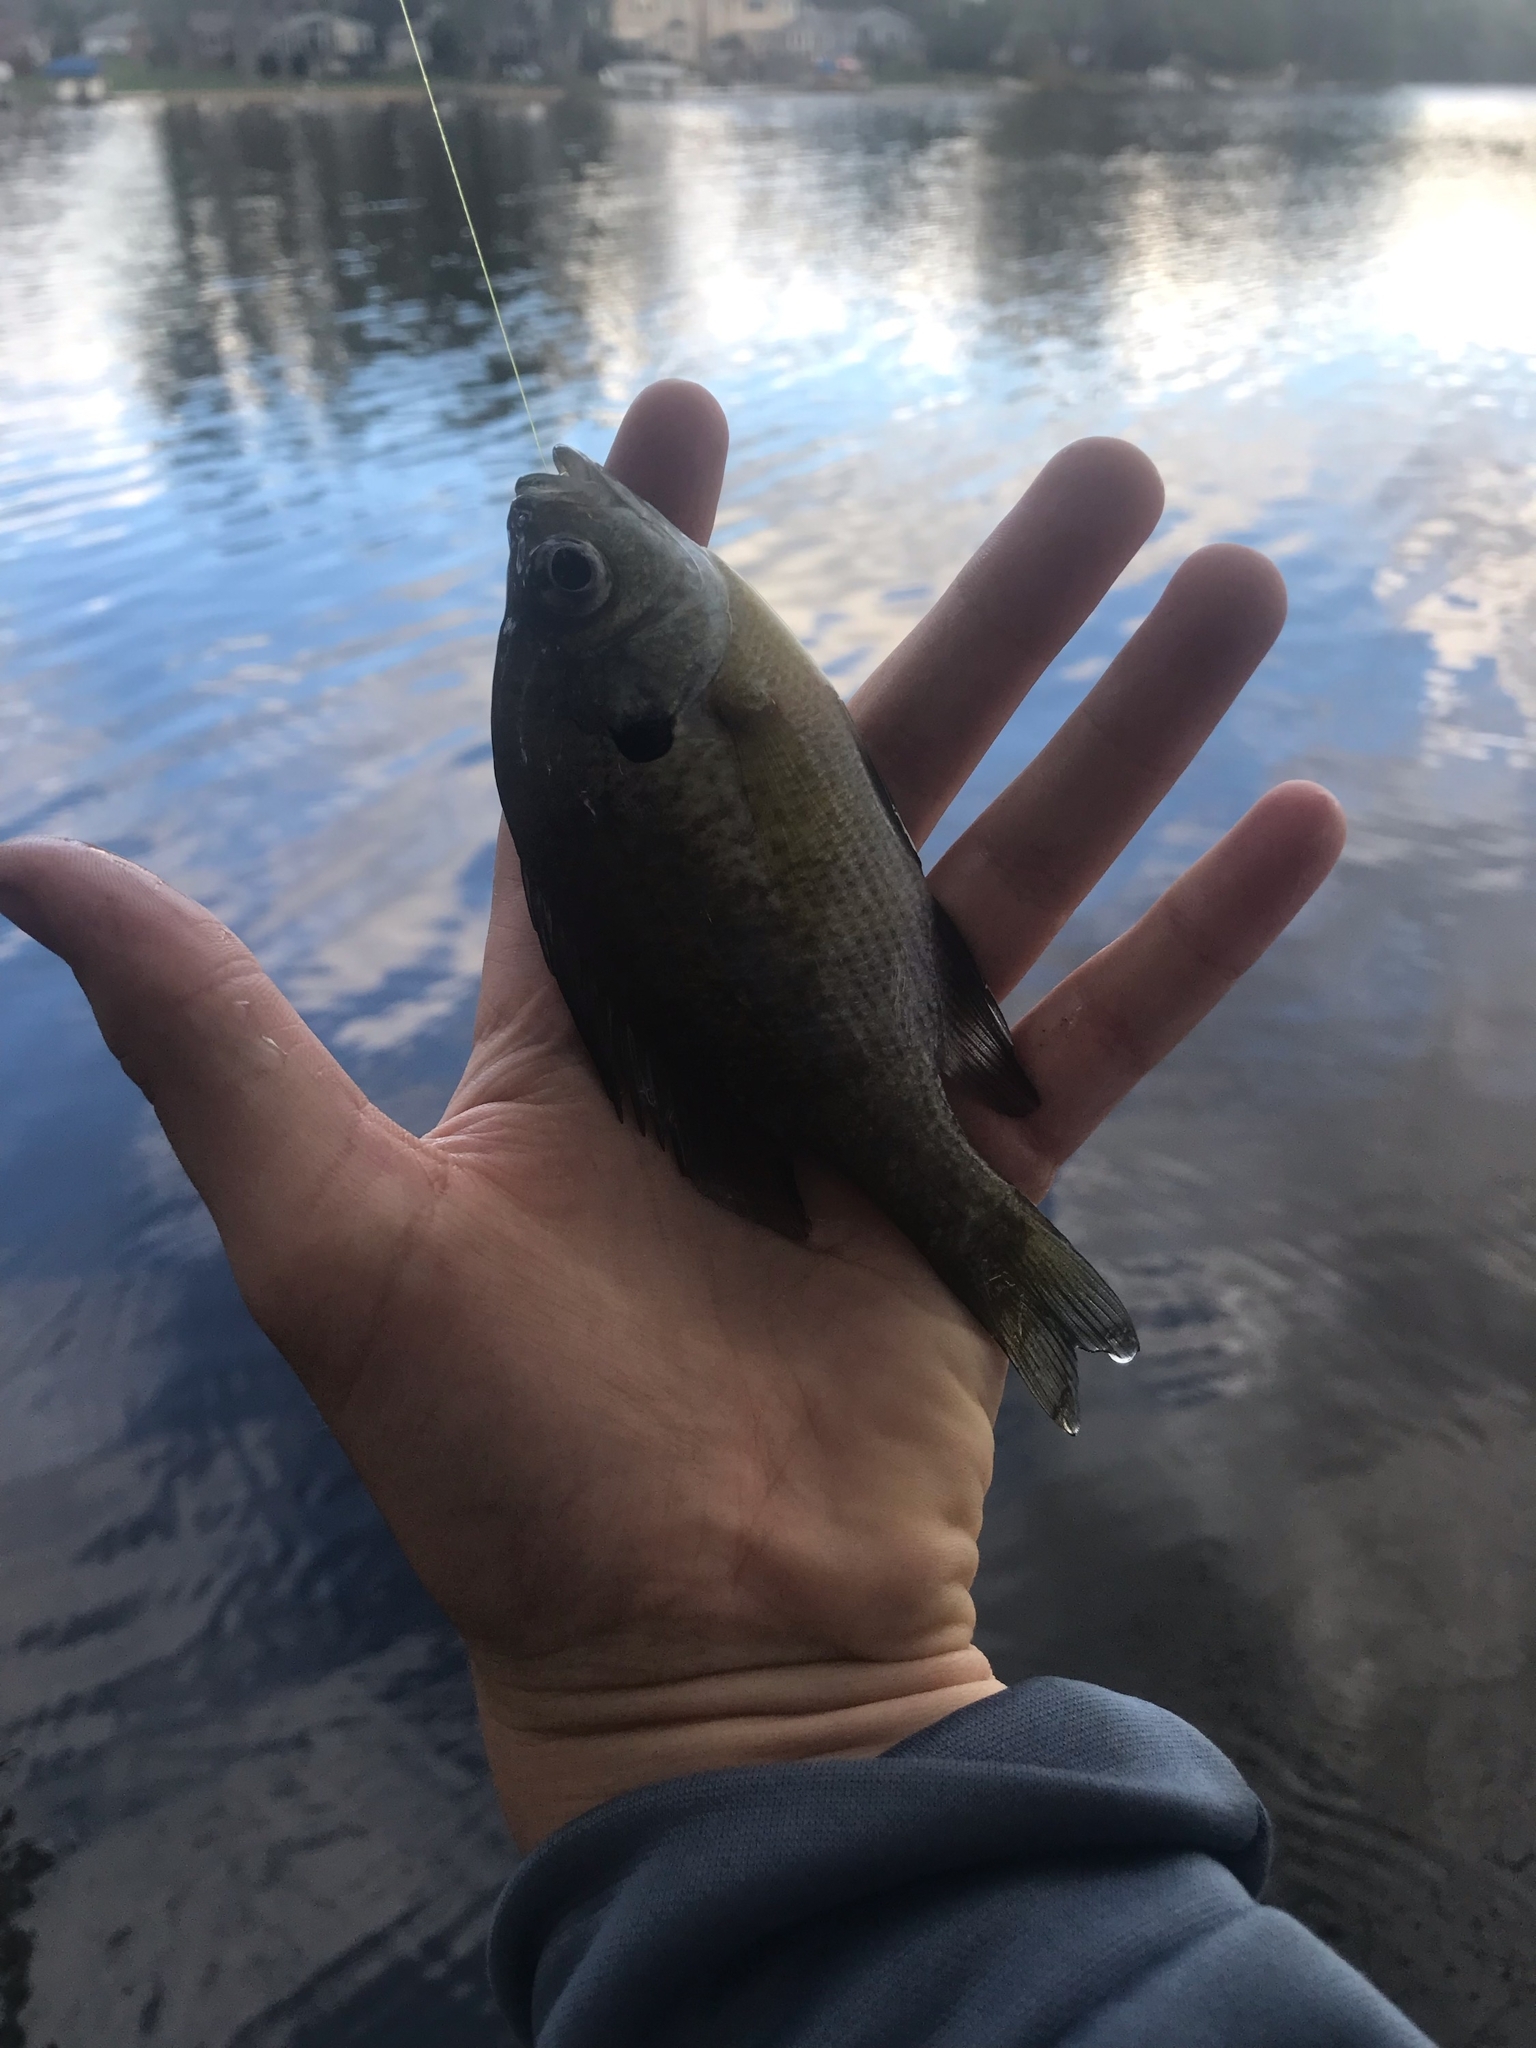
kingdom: Animalia
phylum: Chordata
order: Perciformes
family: Centrarchidae
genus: Lepomis
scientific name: Lepomis macrochirus
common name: Bluegill
